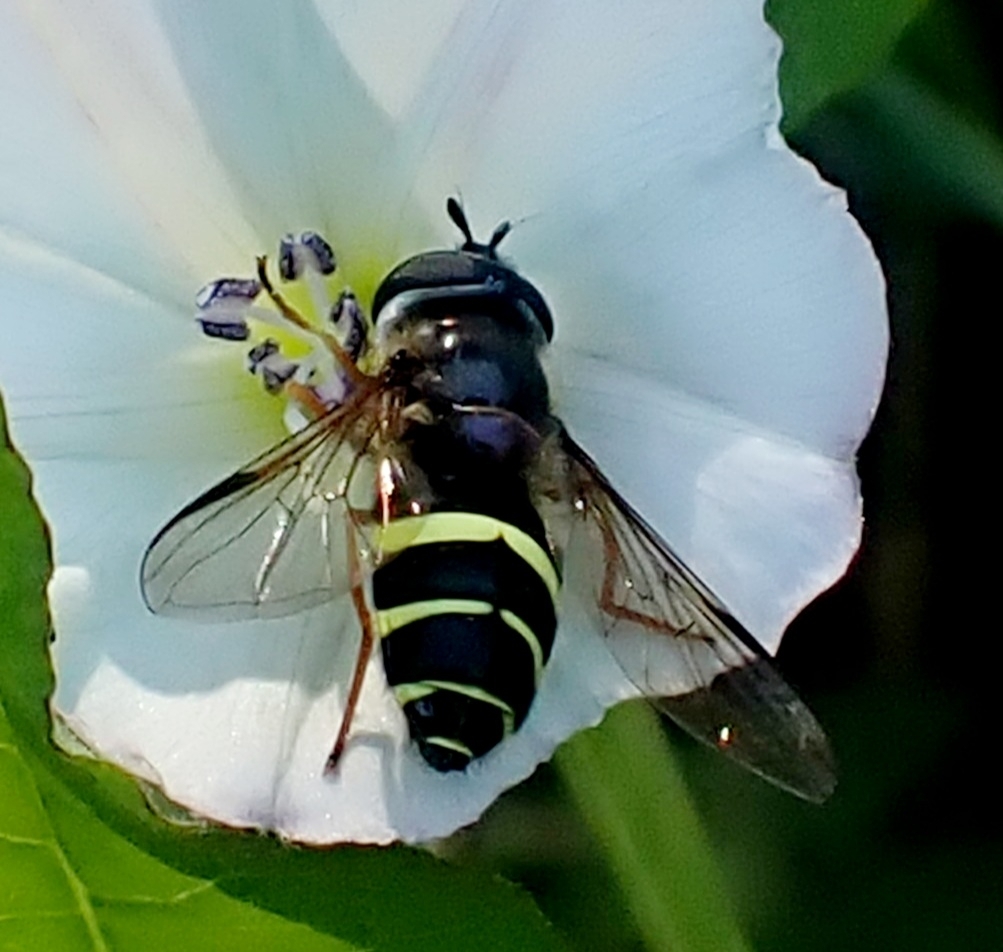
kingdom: Animalia
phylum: Arthropoda
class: Insecta
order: Diptera
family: Syrphidae
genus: Dasysyrphus
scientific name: Dasysyrphus tricinctus
